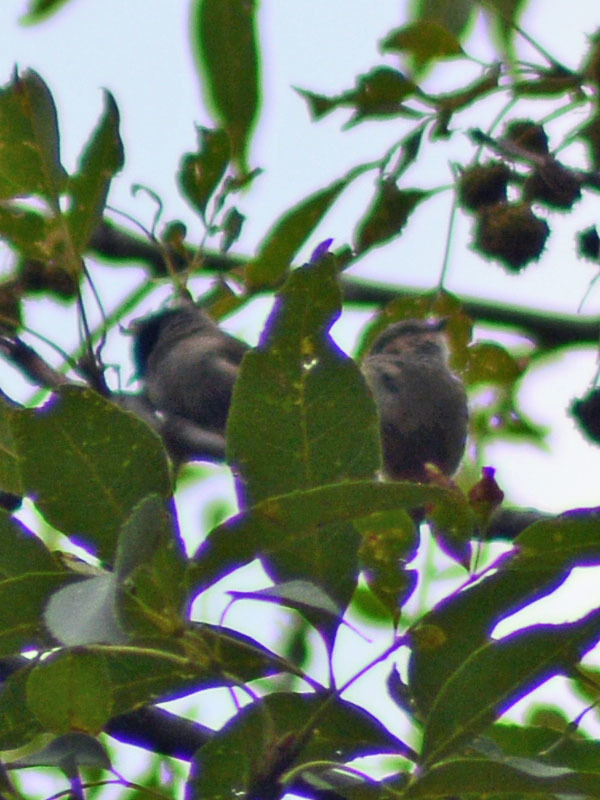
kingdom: Animalia
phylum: Chordata
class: Aves
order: Passeriformes
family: Aegithalidae
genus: Psaltriparus
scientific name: Psaltriparus minimus
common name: American bushtit
